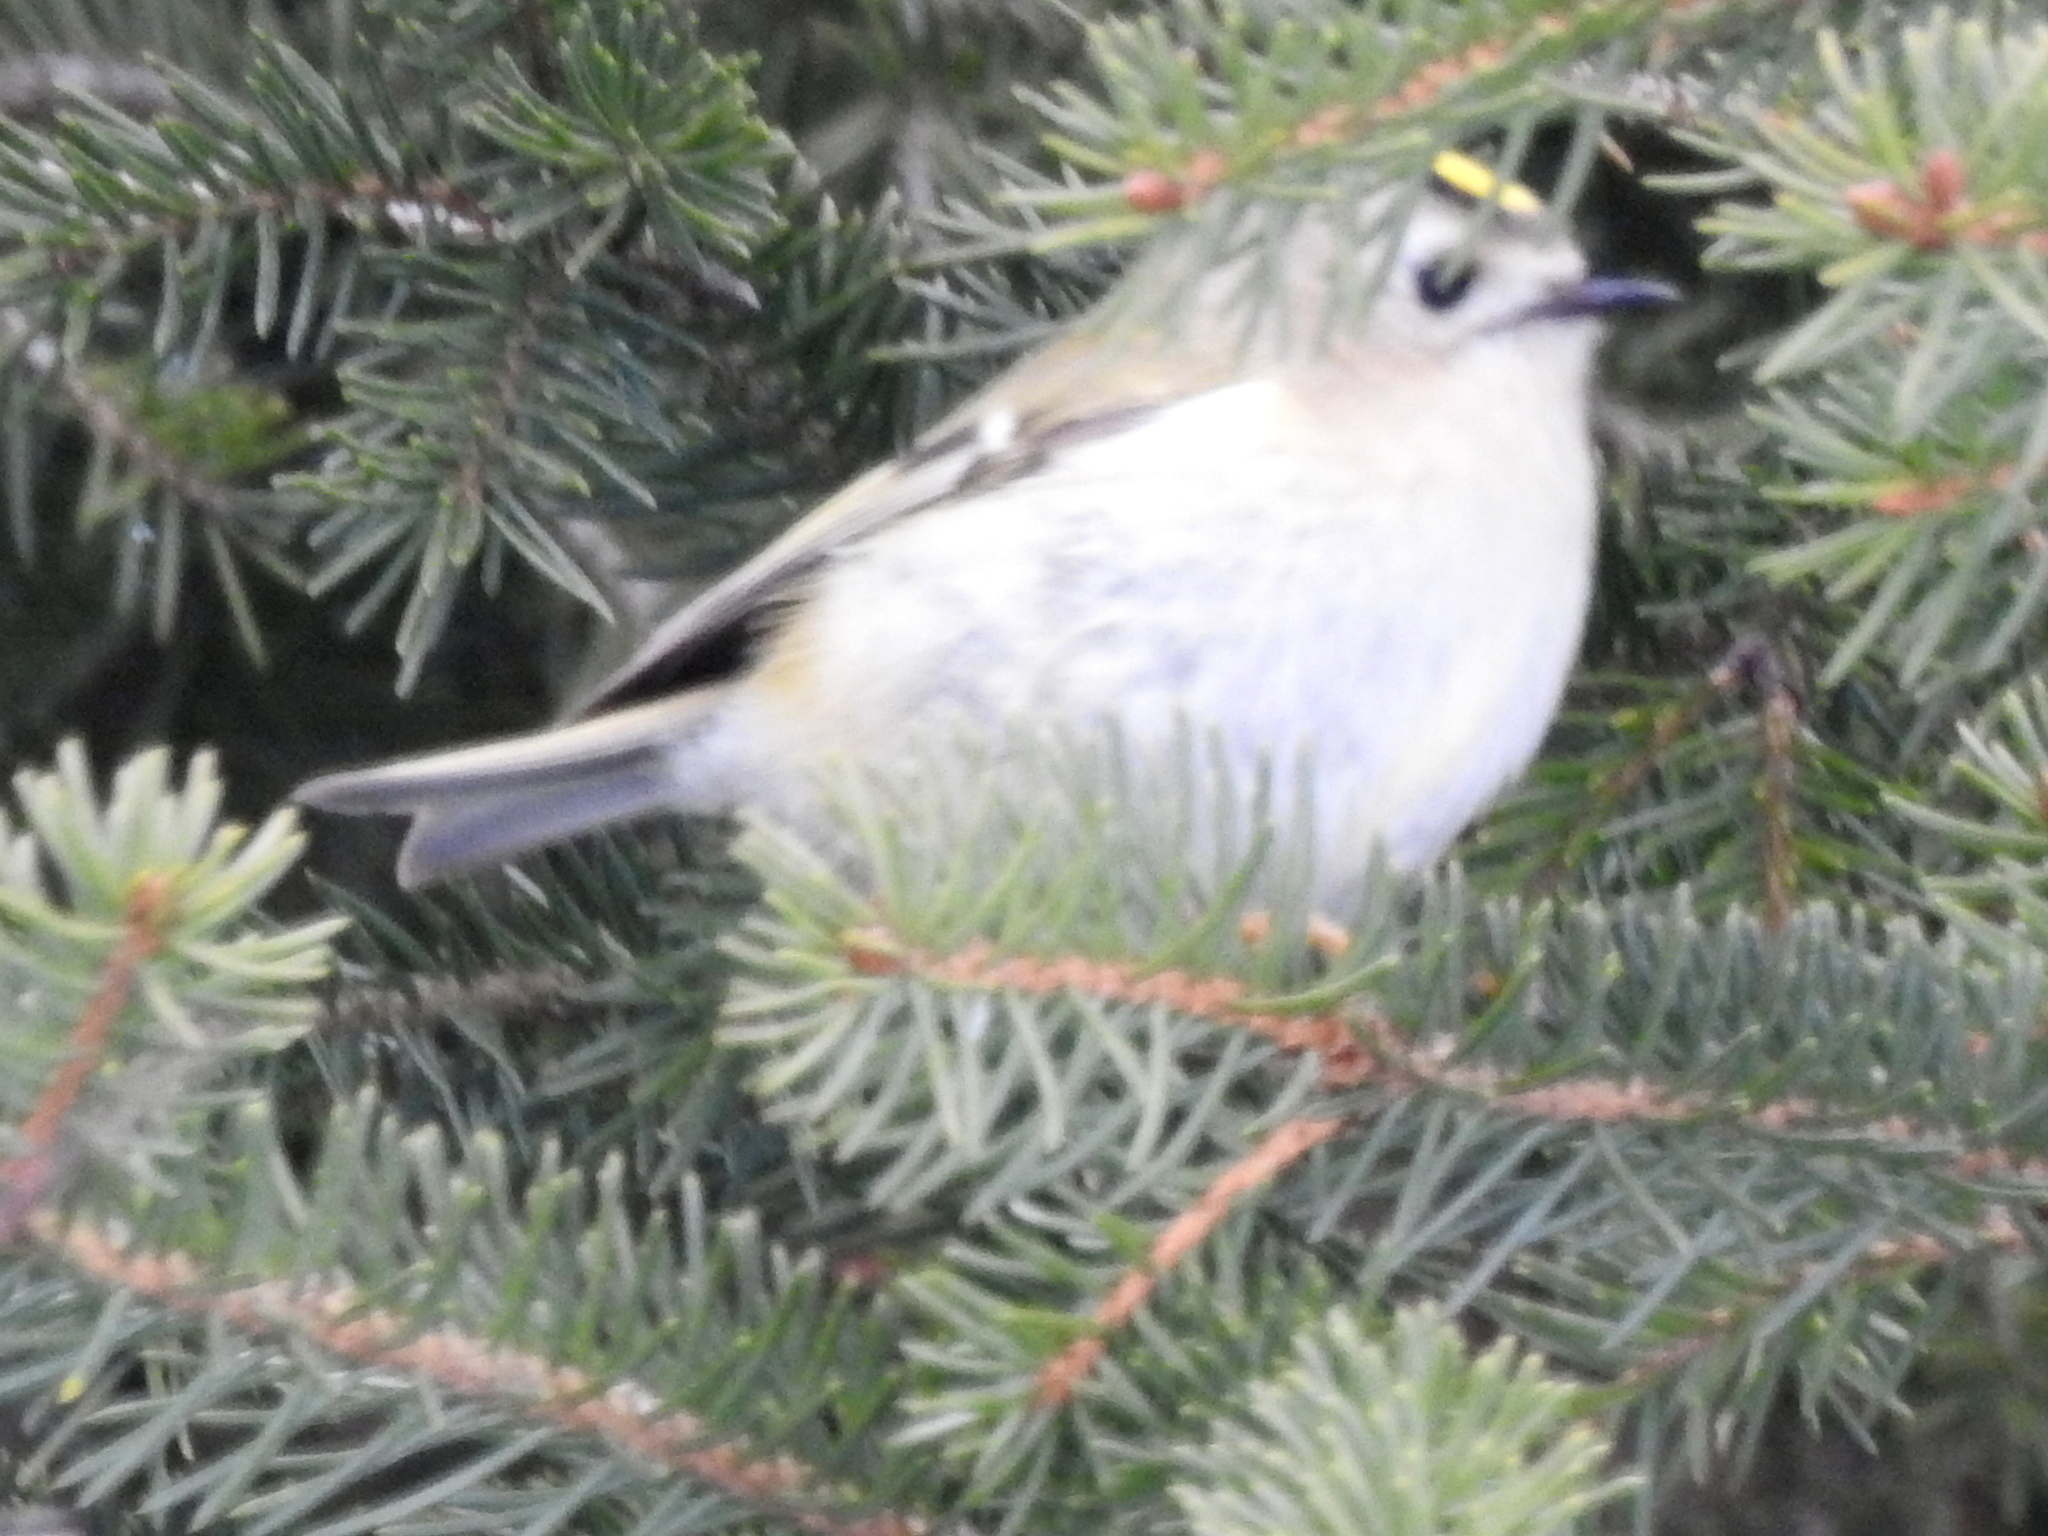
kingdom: Animalia
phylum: Chordata
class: Aves
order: Passeriformes
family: Regulidae
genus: Regulus
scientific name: Regulus regulus
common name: Goldcrest
